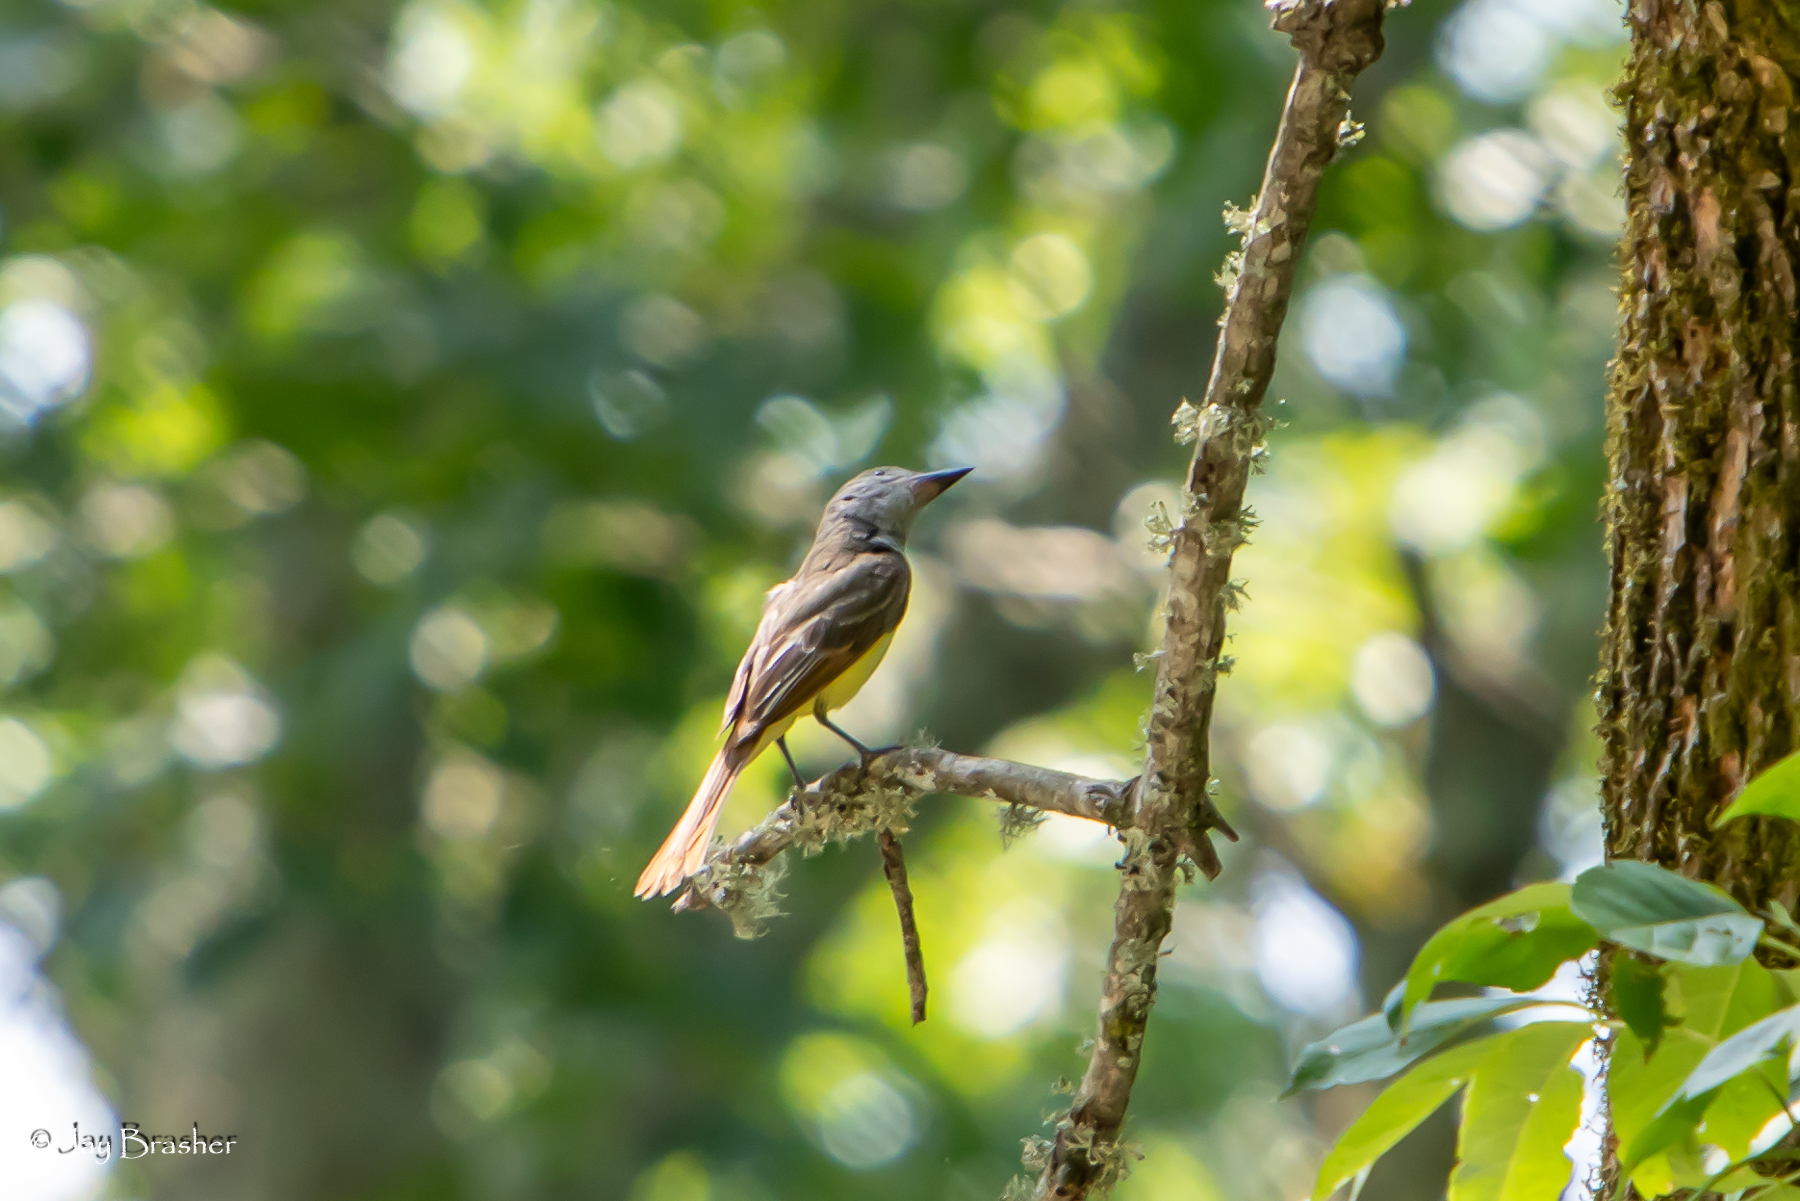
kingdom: Animalia
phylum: Chordata
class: Aves
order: Passeriformes
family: Tyrannidae
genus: Myiarchus
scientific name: Myiarchus crinitus
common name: Great crested flycatcher
